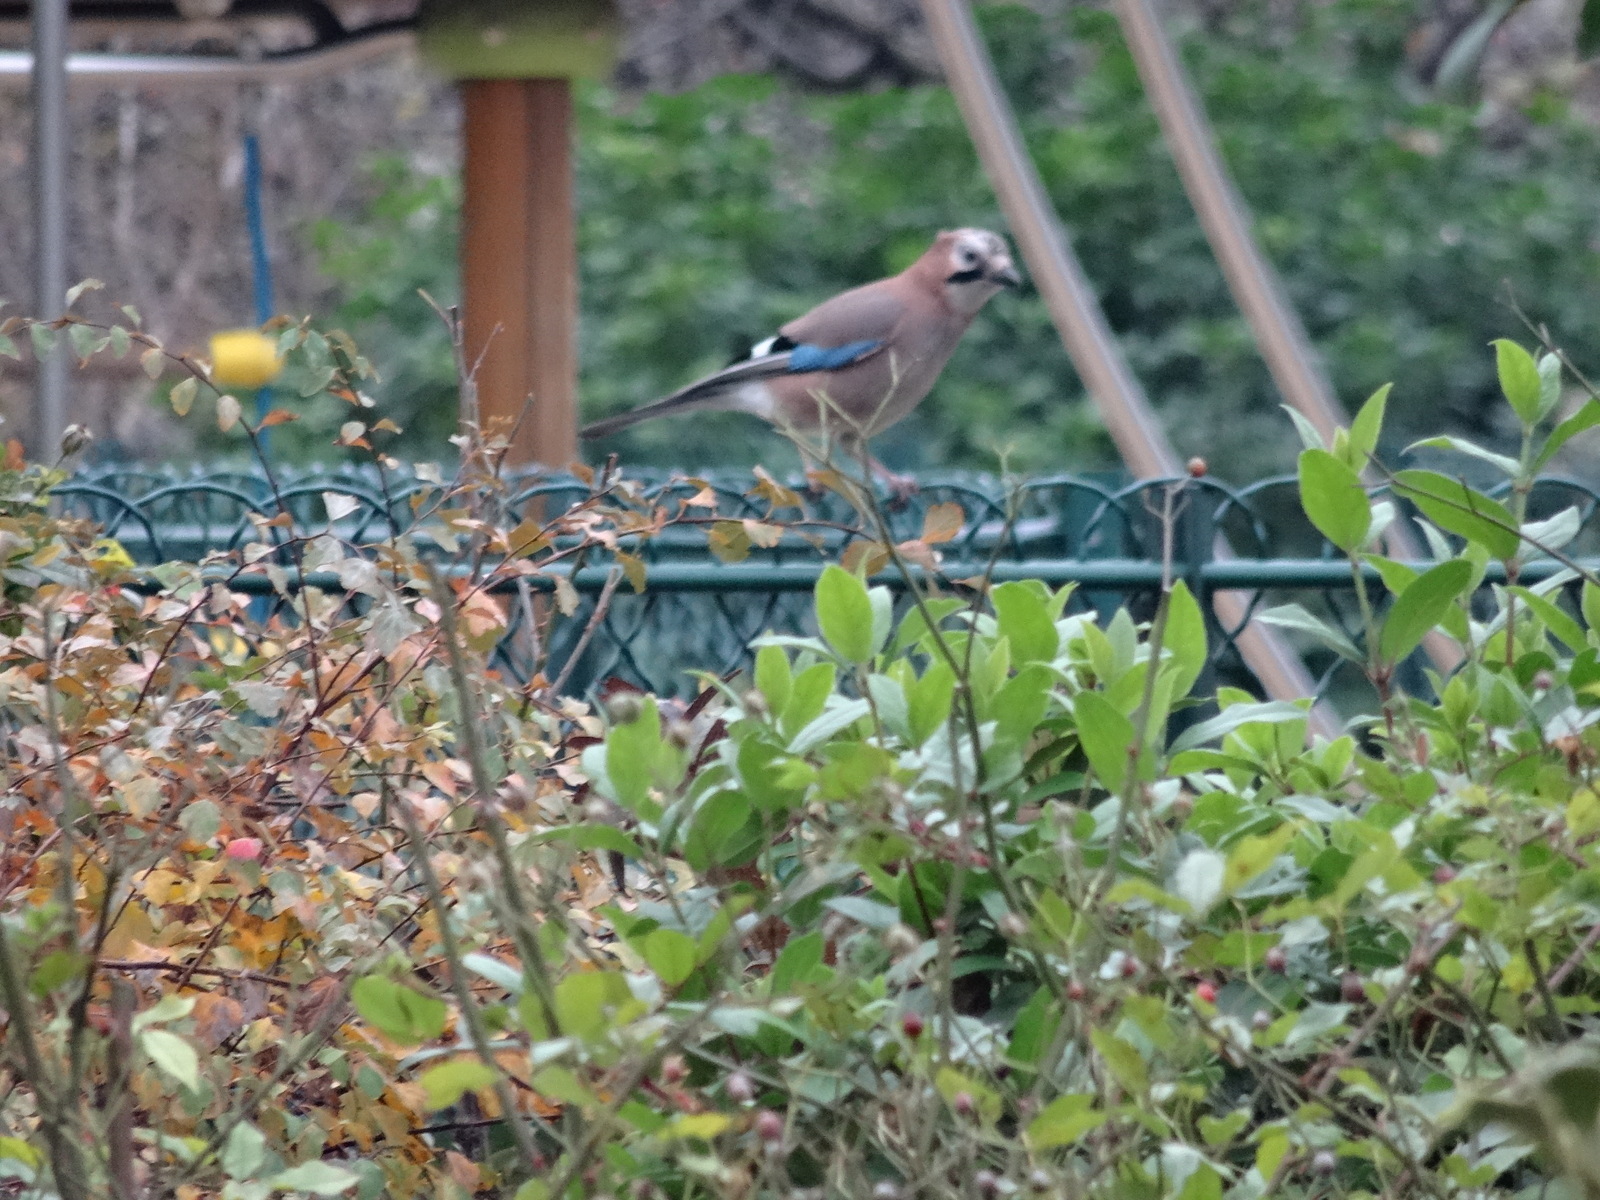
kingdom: Animalia
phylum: Chordata
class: Aves
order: Passeriformes
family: Corvidae
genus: Garrulus
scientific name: Garrulus glandarius
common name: Eurasian jay
